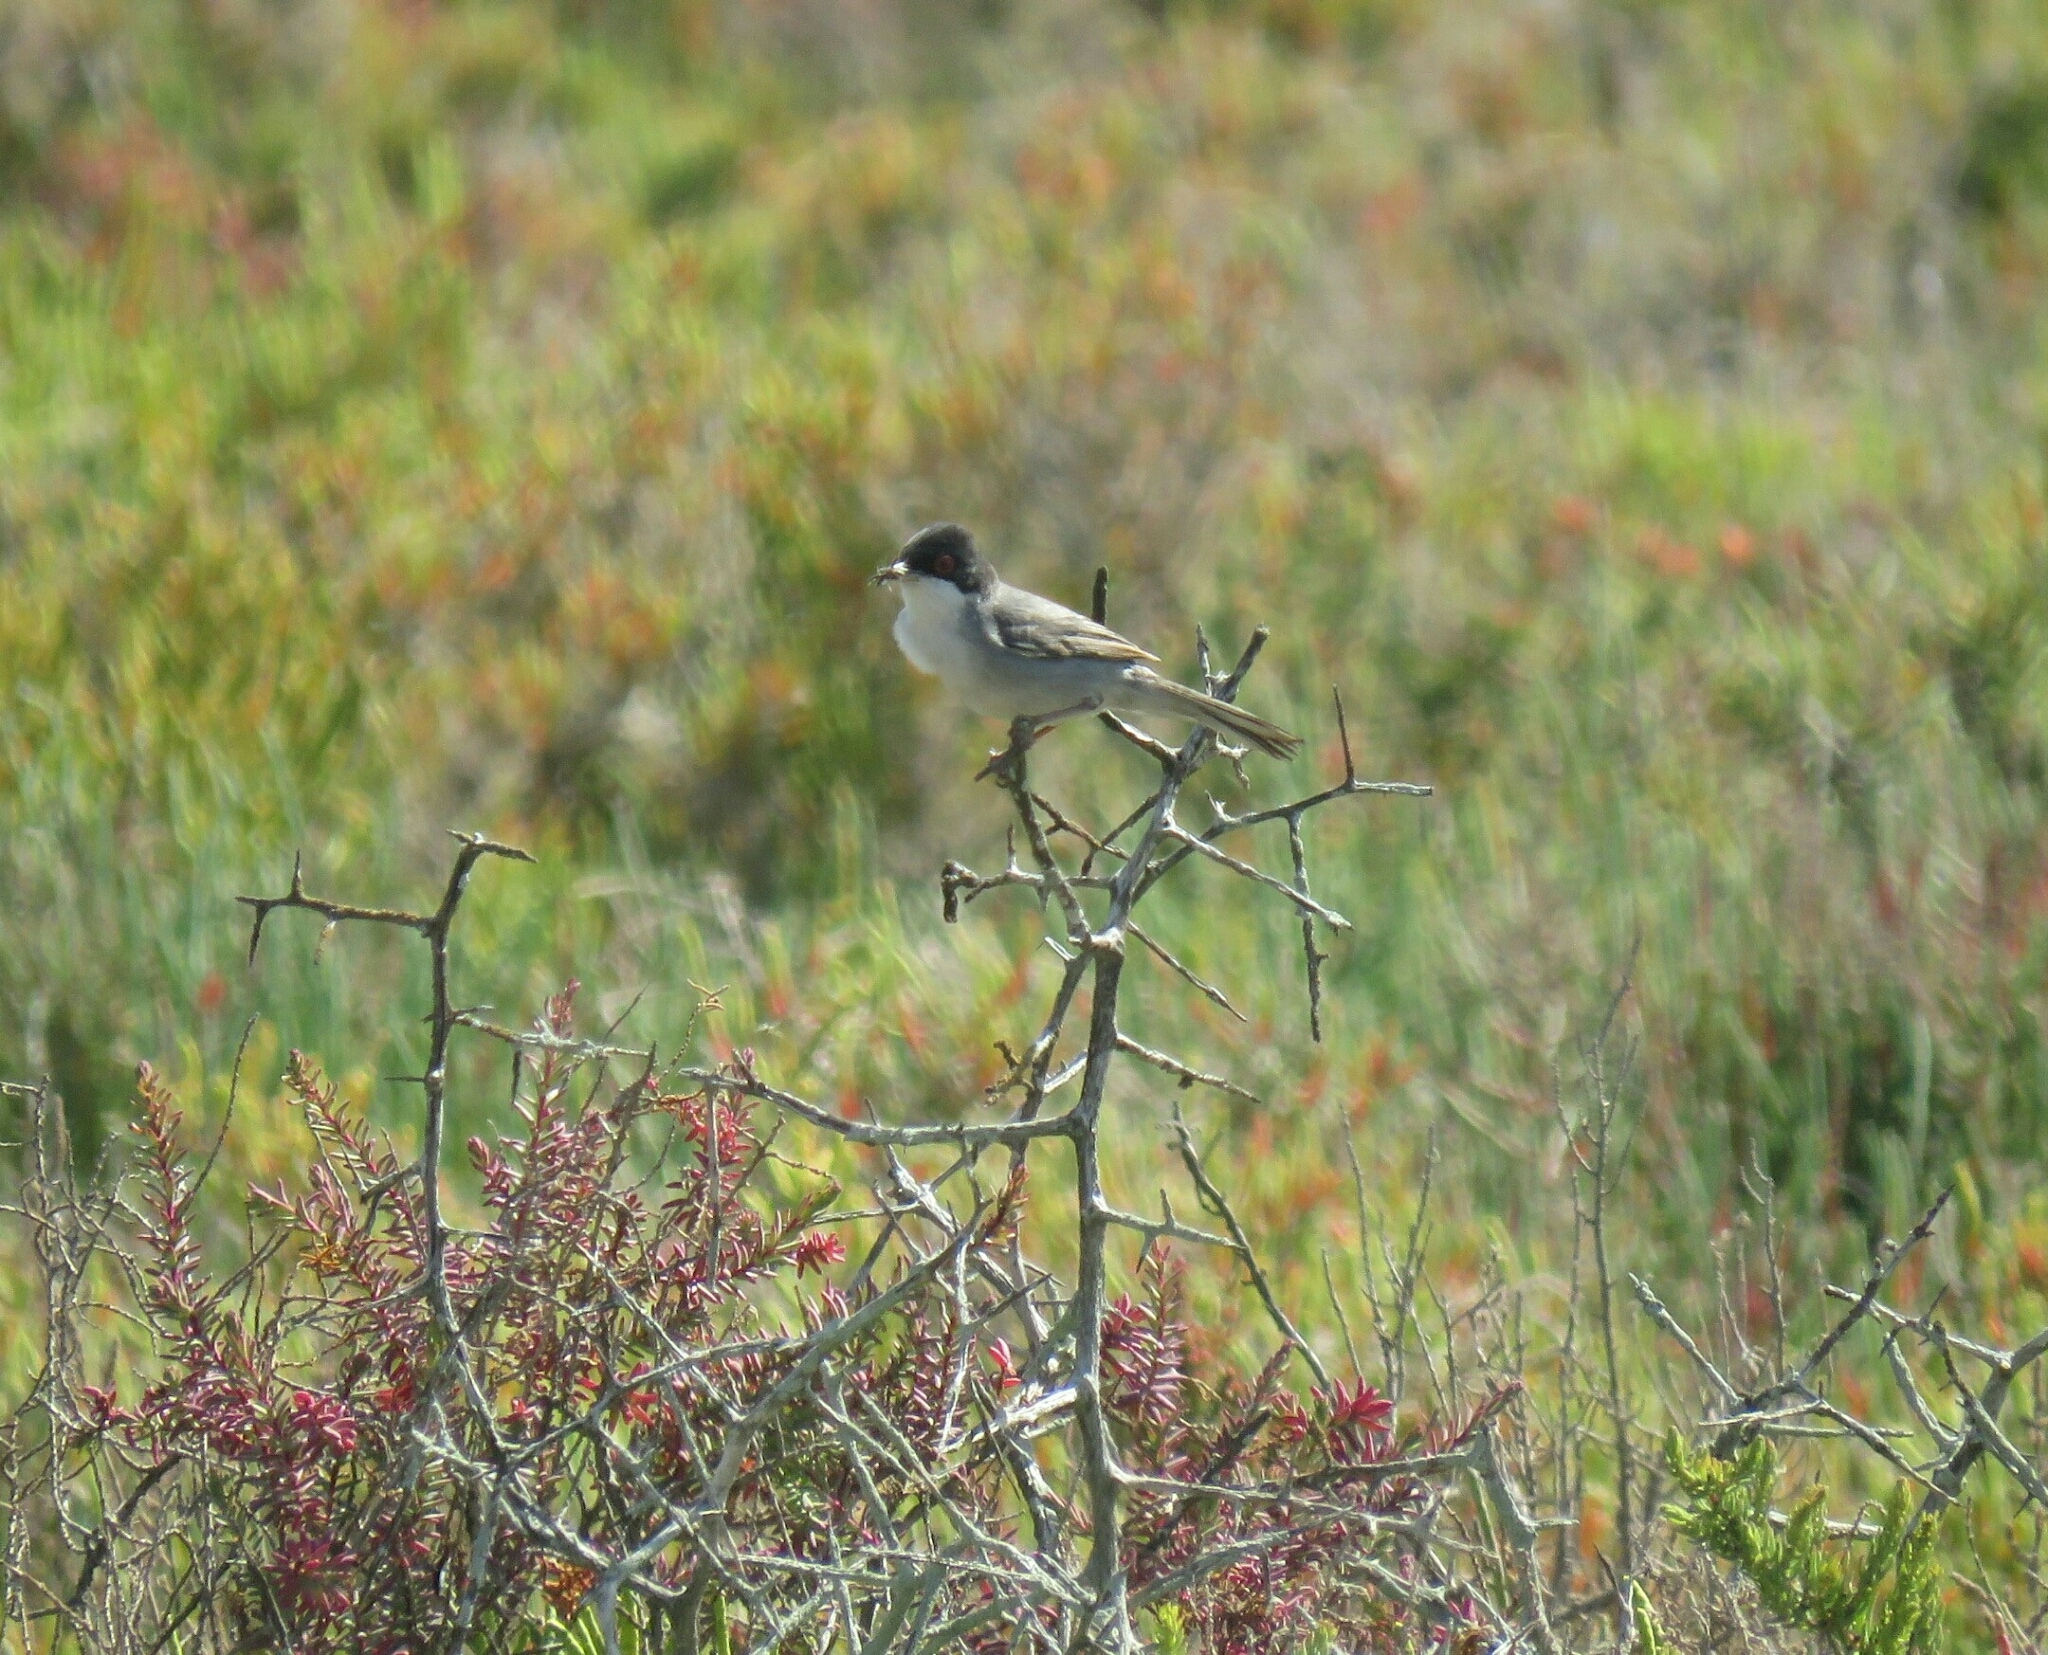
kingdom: Animalia
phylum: Chordata
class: Aves
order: Passeriformes
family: Sylviidae
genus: Curruca
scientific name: Curruca melanocephala
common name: Sardinian warbler
